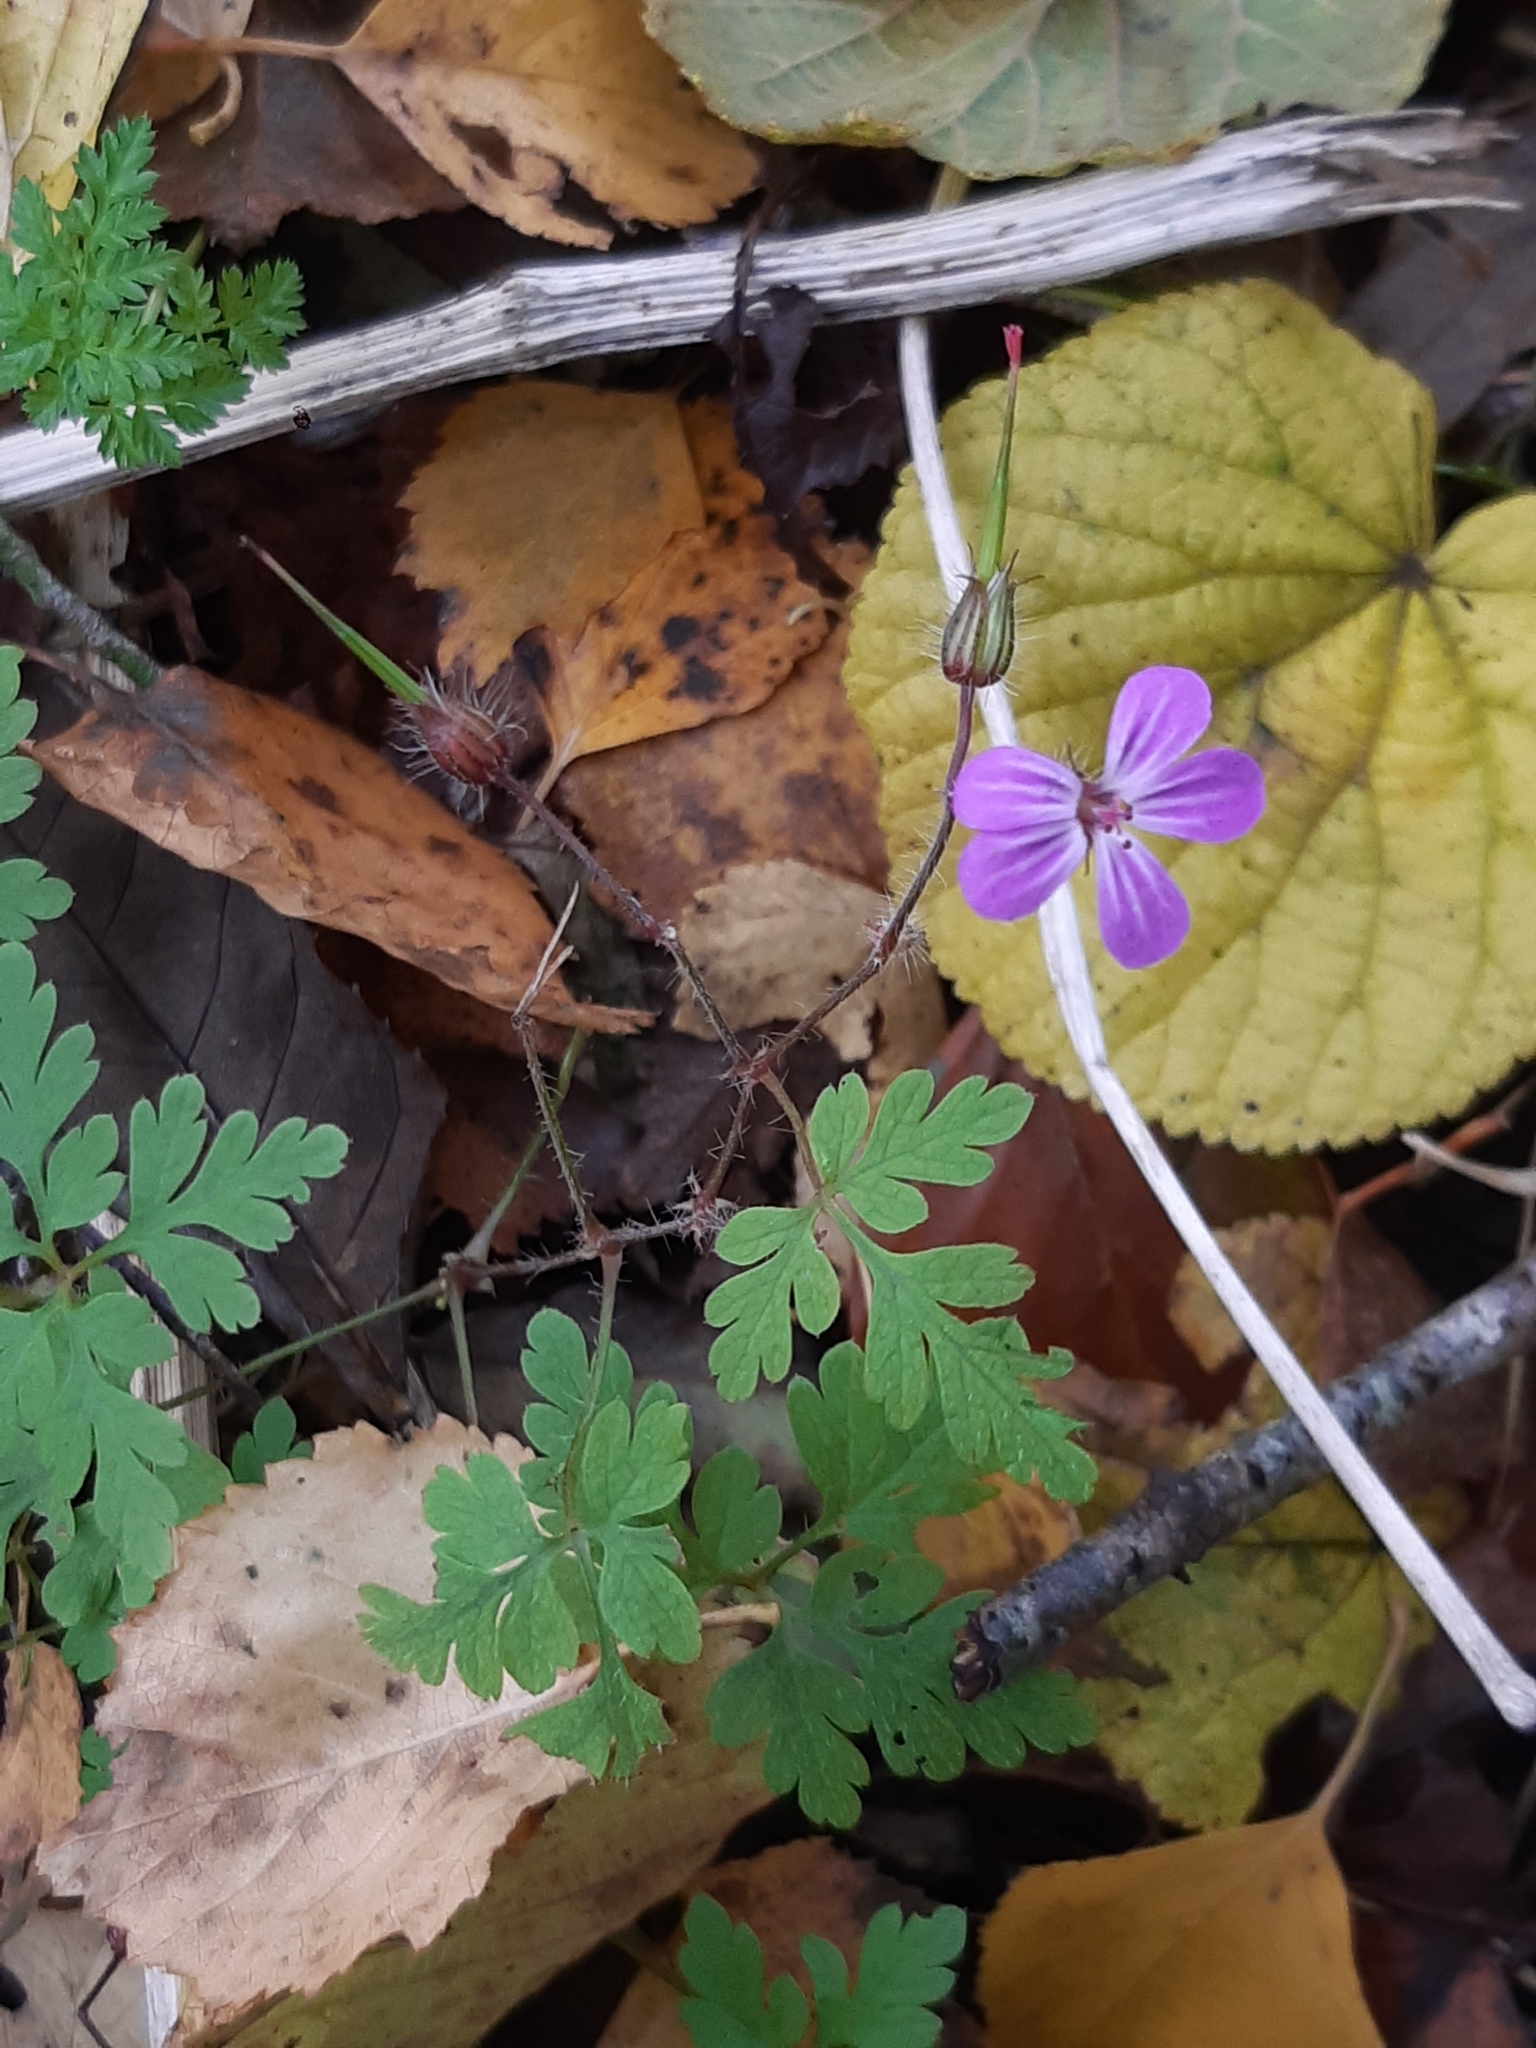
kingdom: Plantae
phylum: Tracheophyta
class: Magnoliopsida
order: Geraniales
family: Geraniaceae
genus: Geranium
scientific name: Geranium robertianum
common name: Herb-robert
